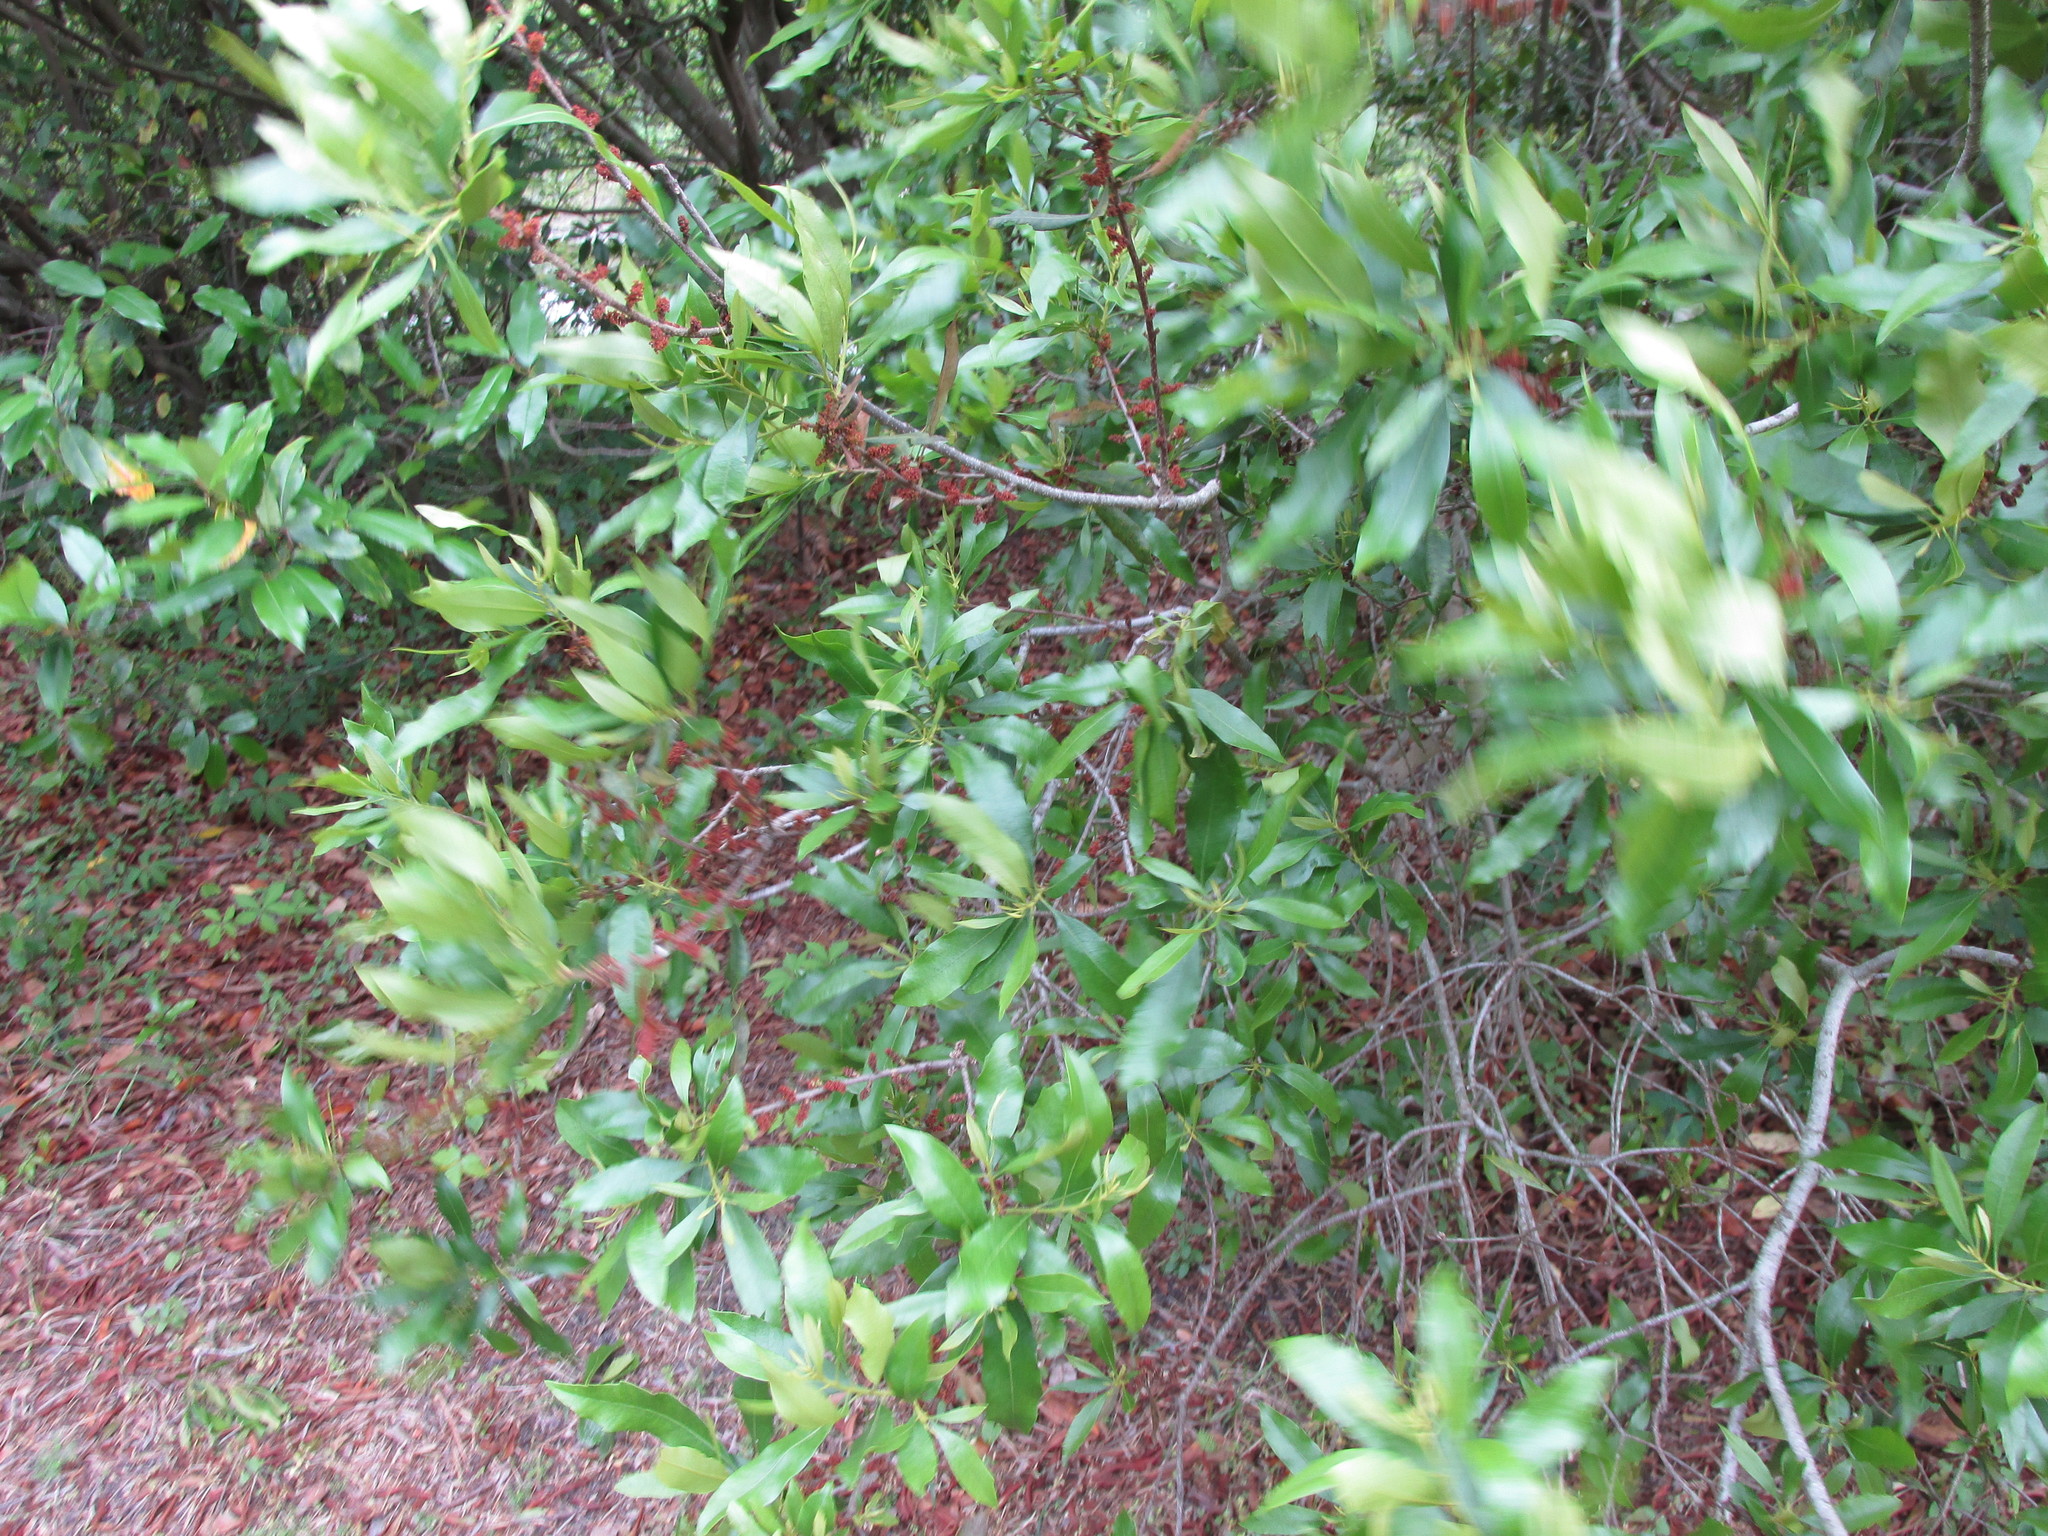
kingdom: Plantae
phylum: Tracheophyta
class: Magnoliopsida
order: Fagales
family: Myricaceae
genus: Morella
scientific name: Morella cerifera
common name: Wax myrtle
